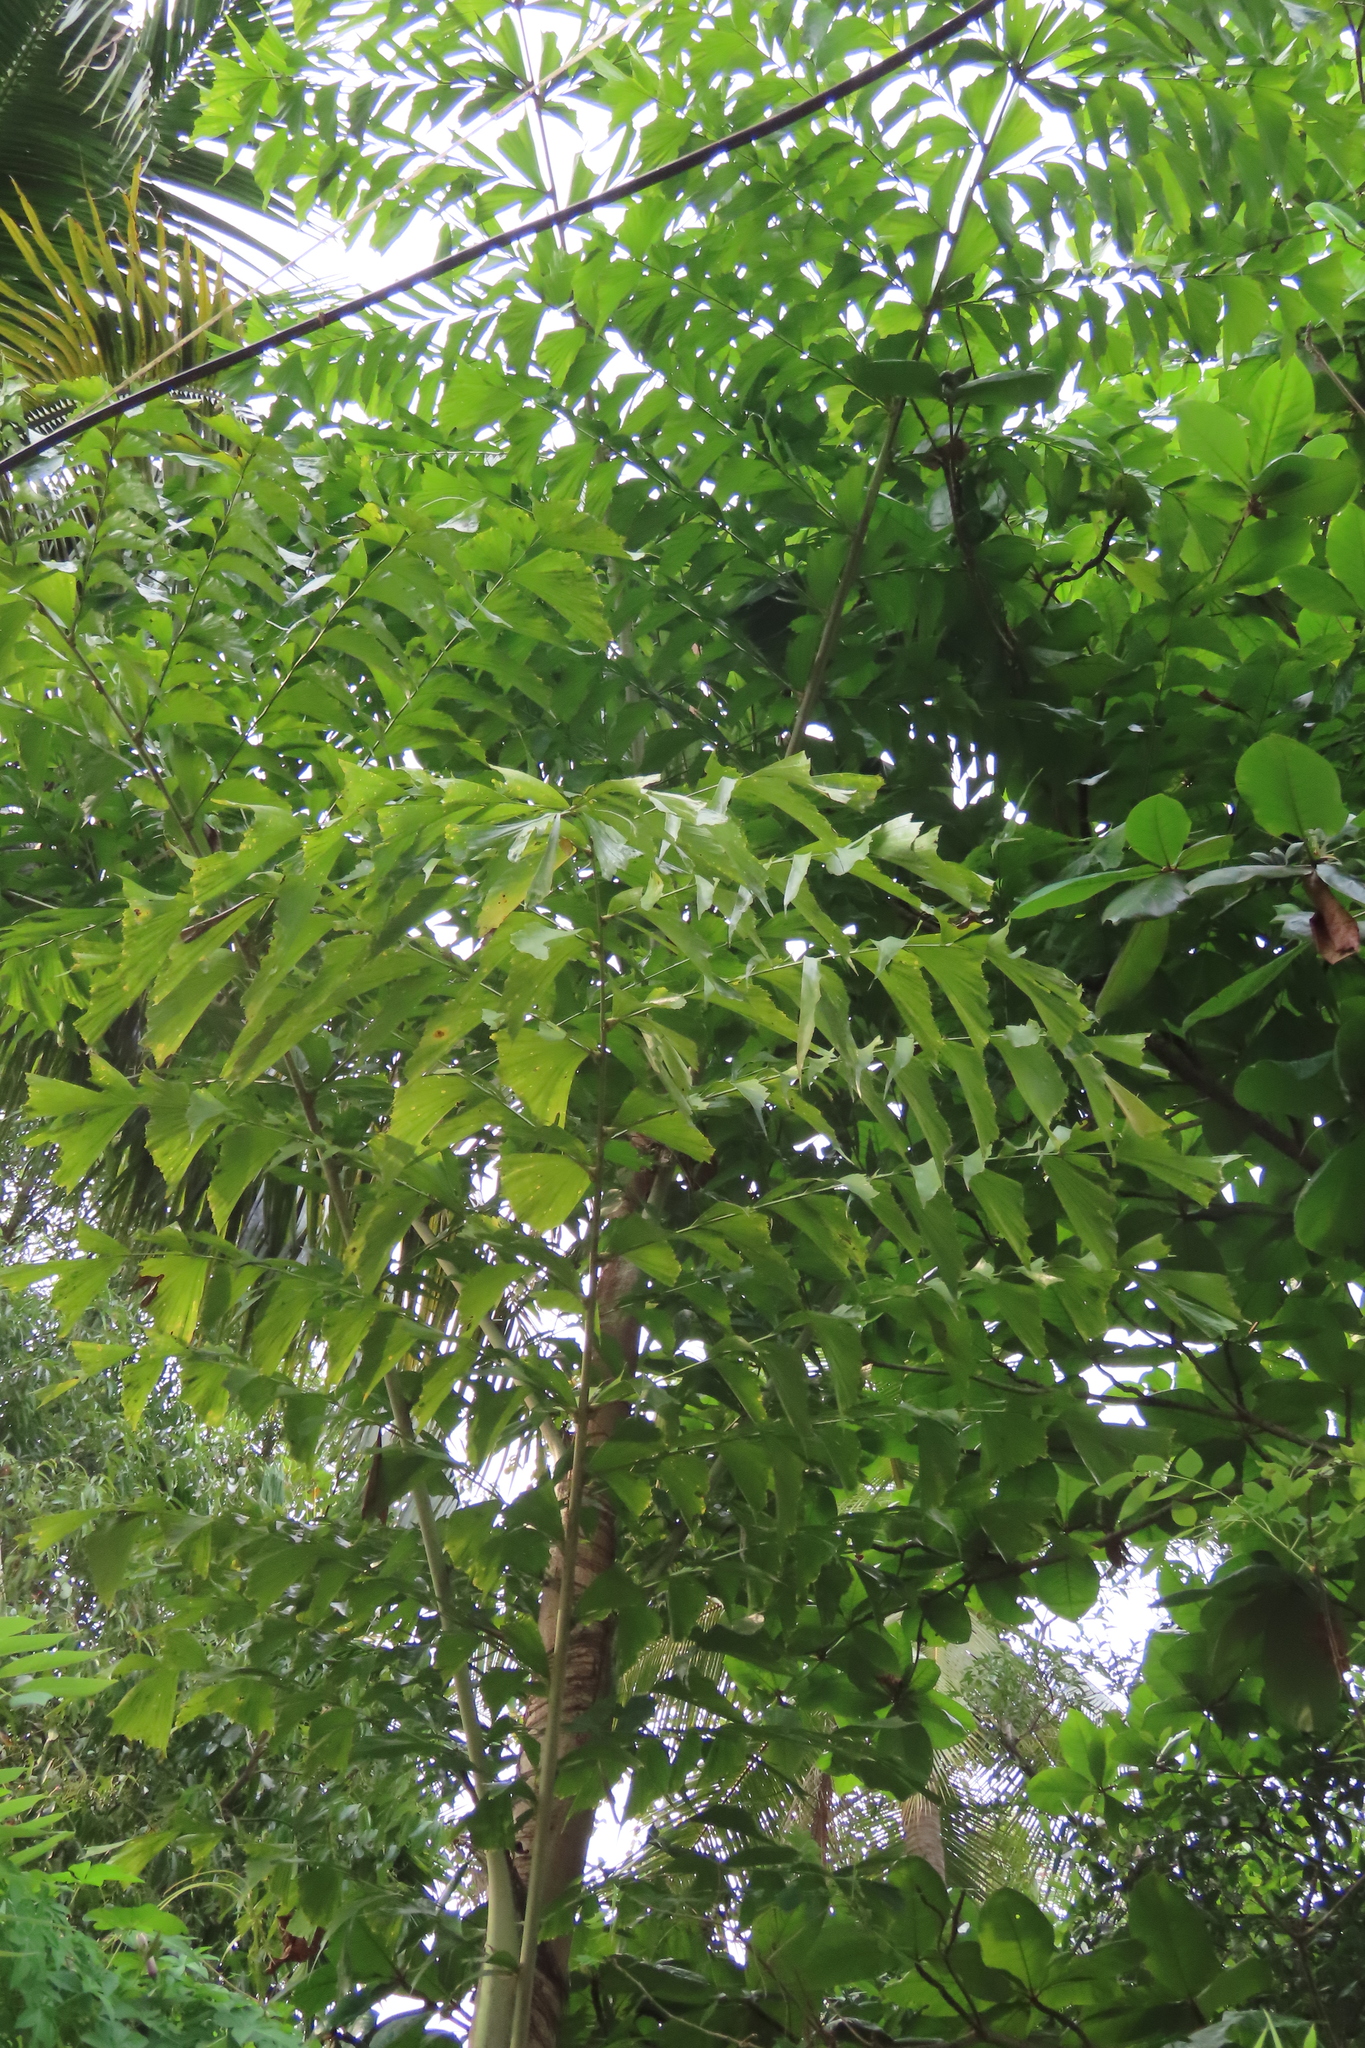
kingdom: Plantae
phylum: Tracheophyta
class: Liliopsida
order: Arecales
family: Arecaceae
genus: Caryota
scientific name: Caryota urens
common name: Jaggery palm
